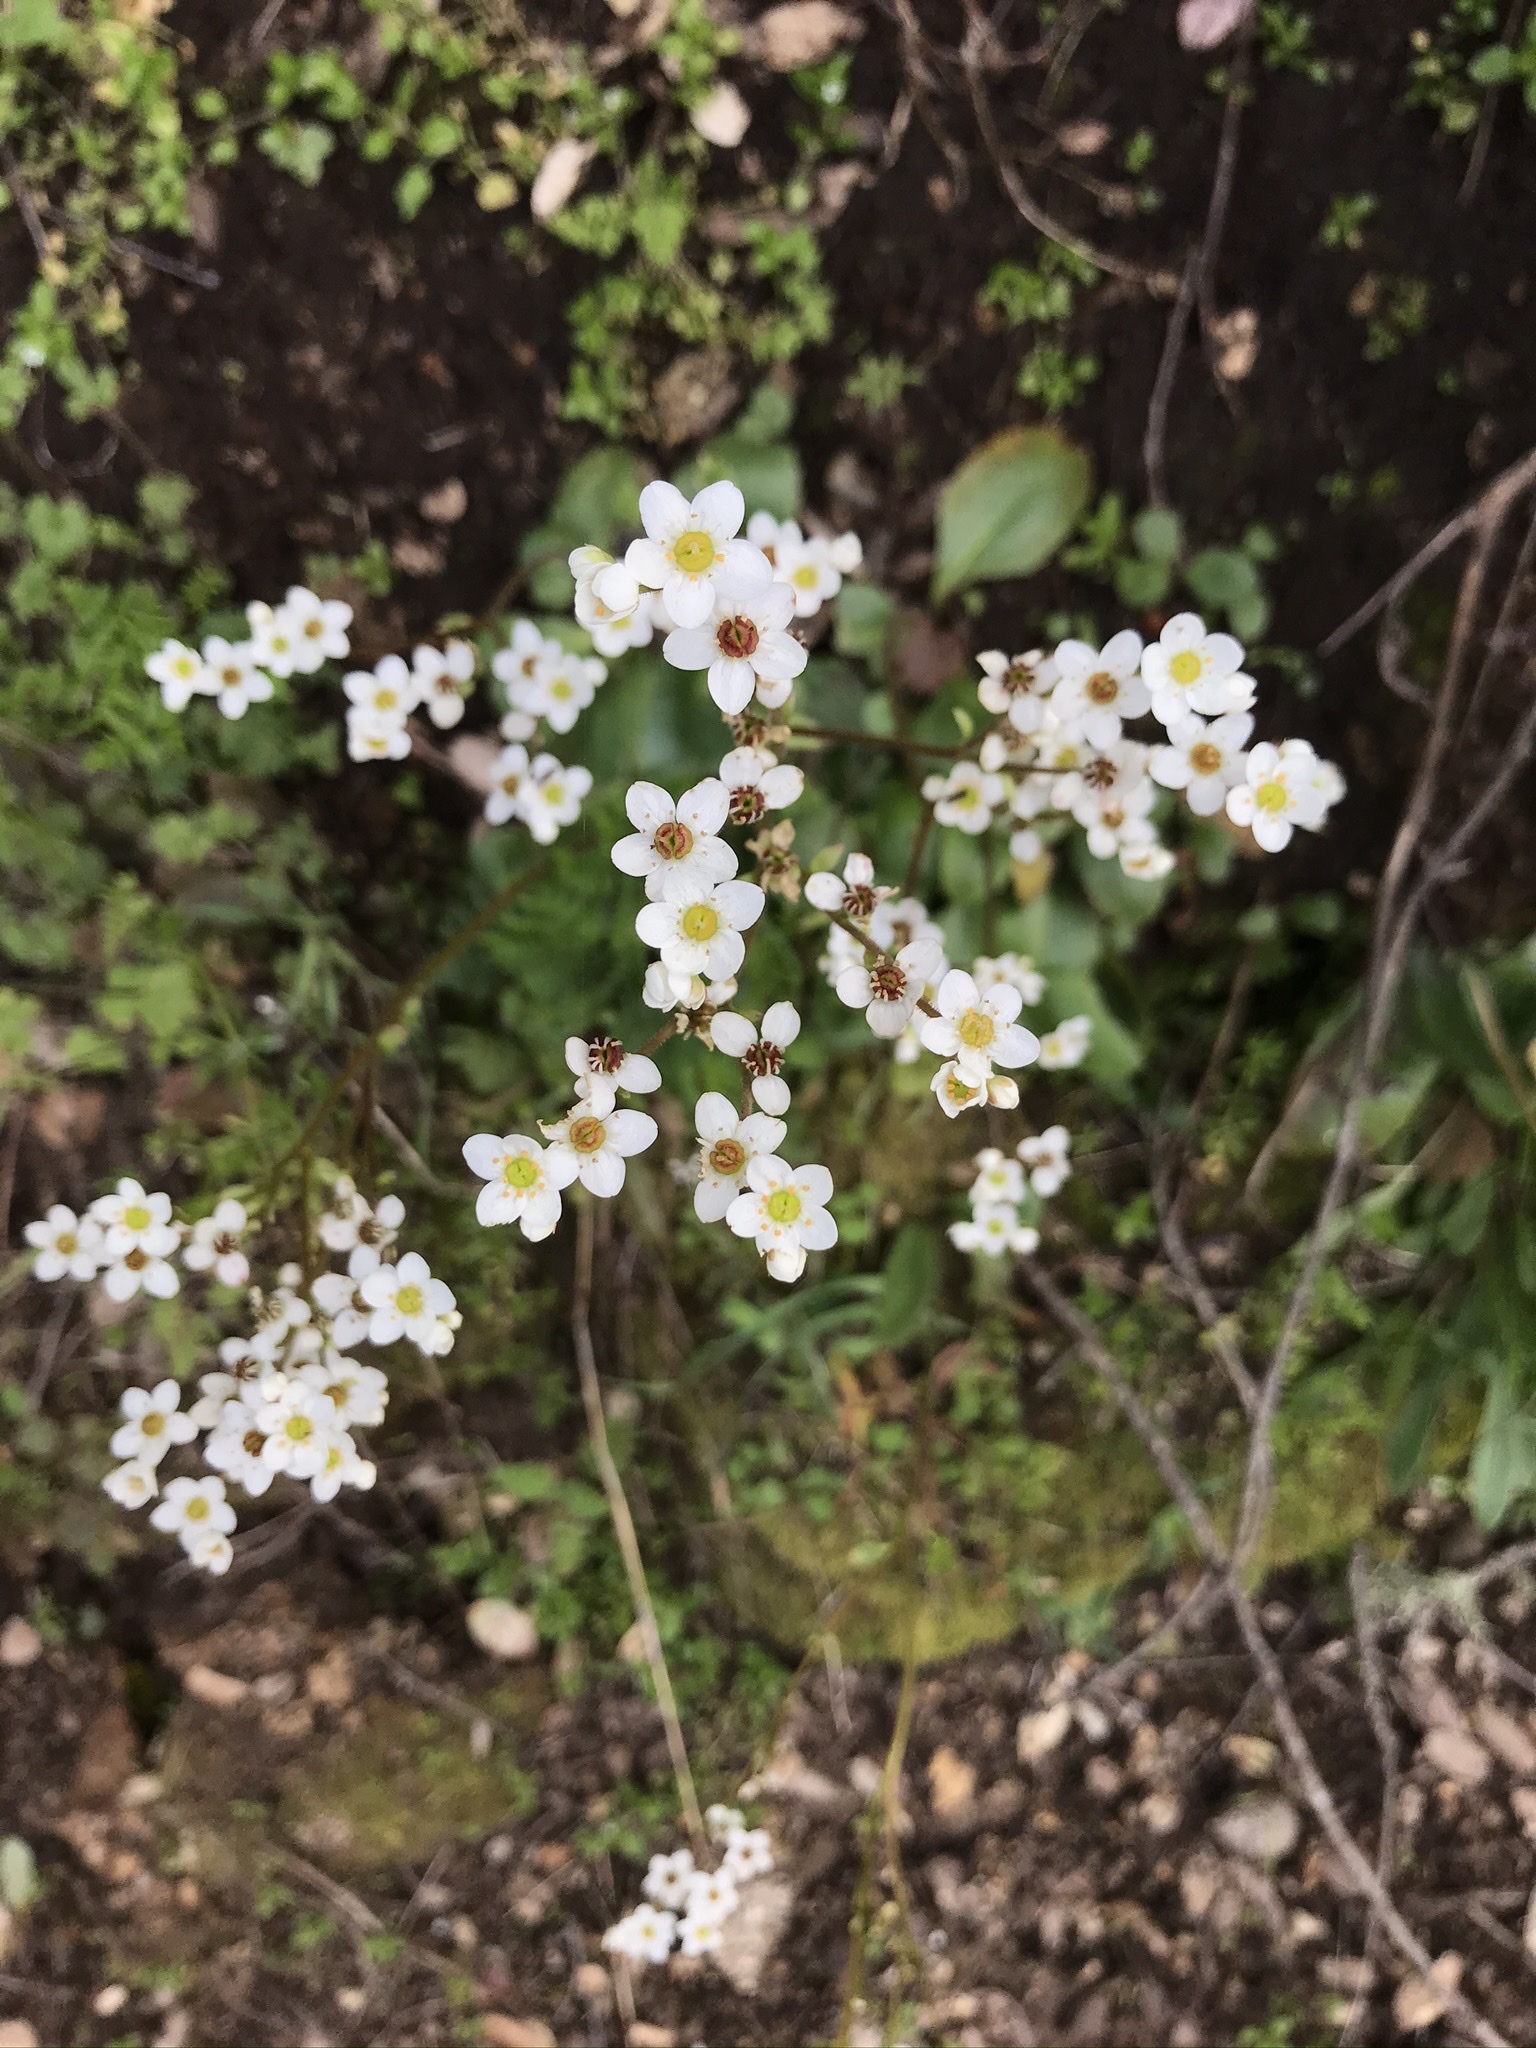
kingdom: Plantae
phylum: Tracheophyta
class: Magnoliopsida
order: Saxifragales
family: Saxifragaceae
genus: Micranthes
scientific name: Micranthes californica
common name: California saxifrage
